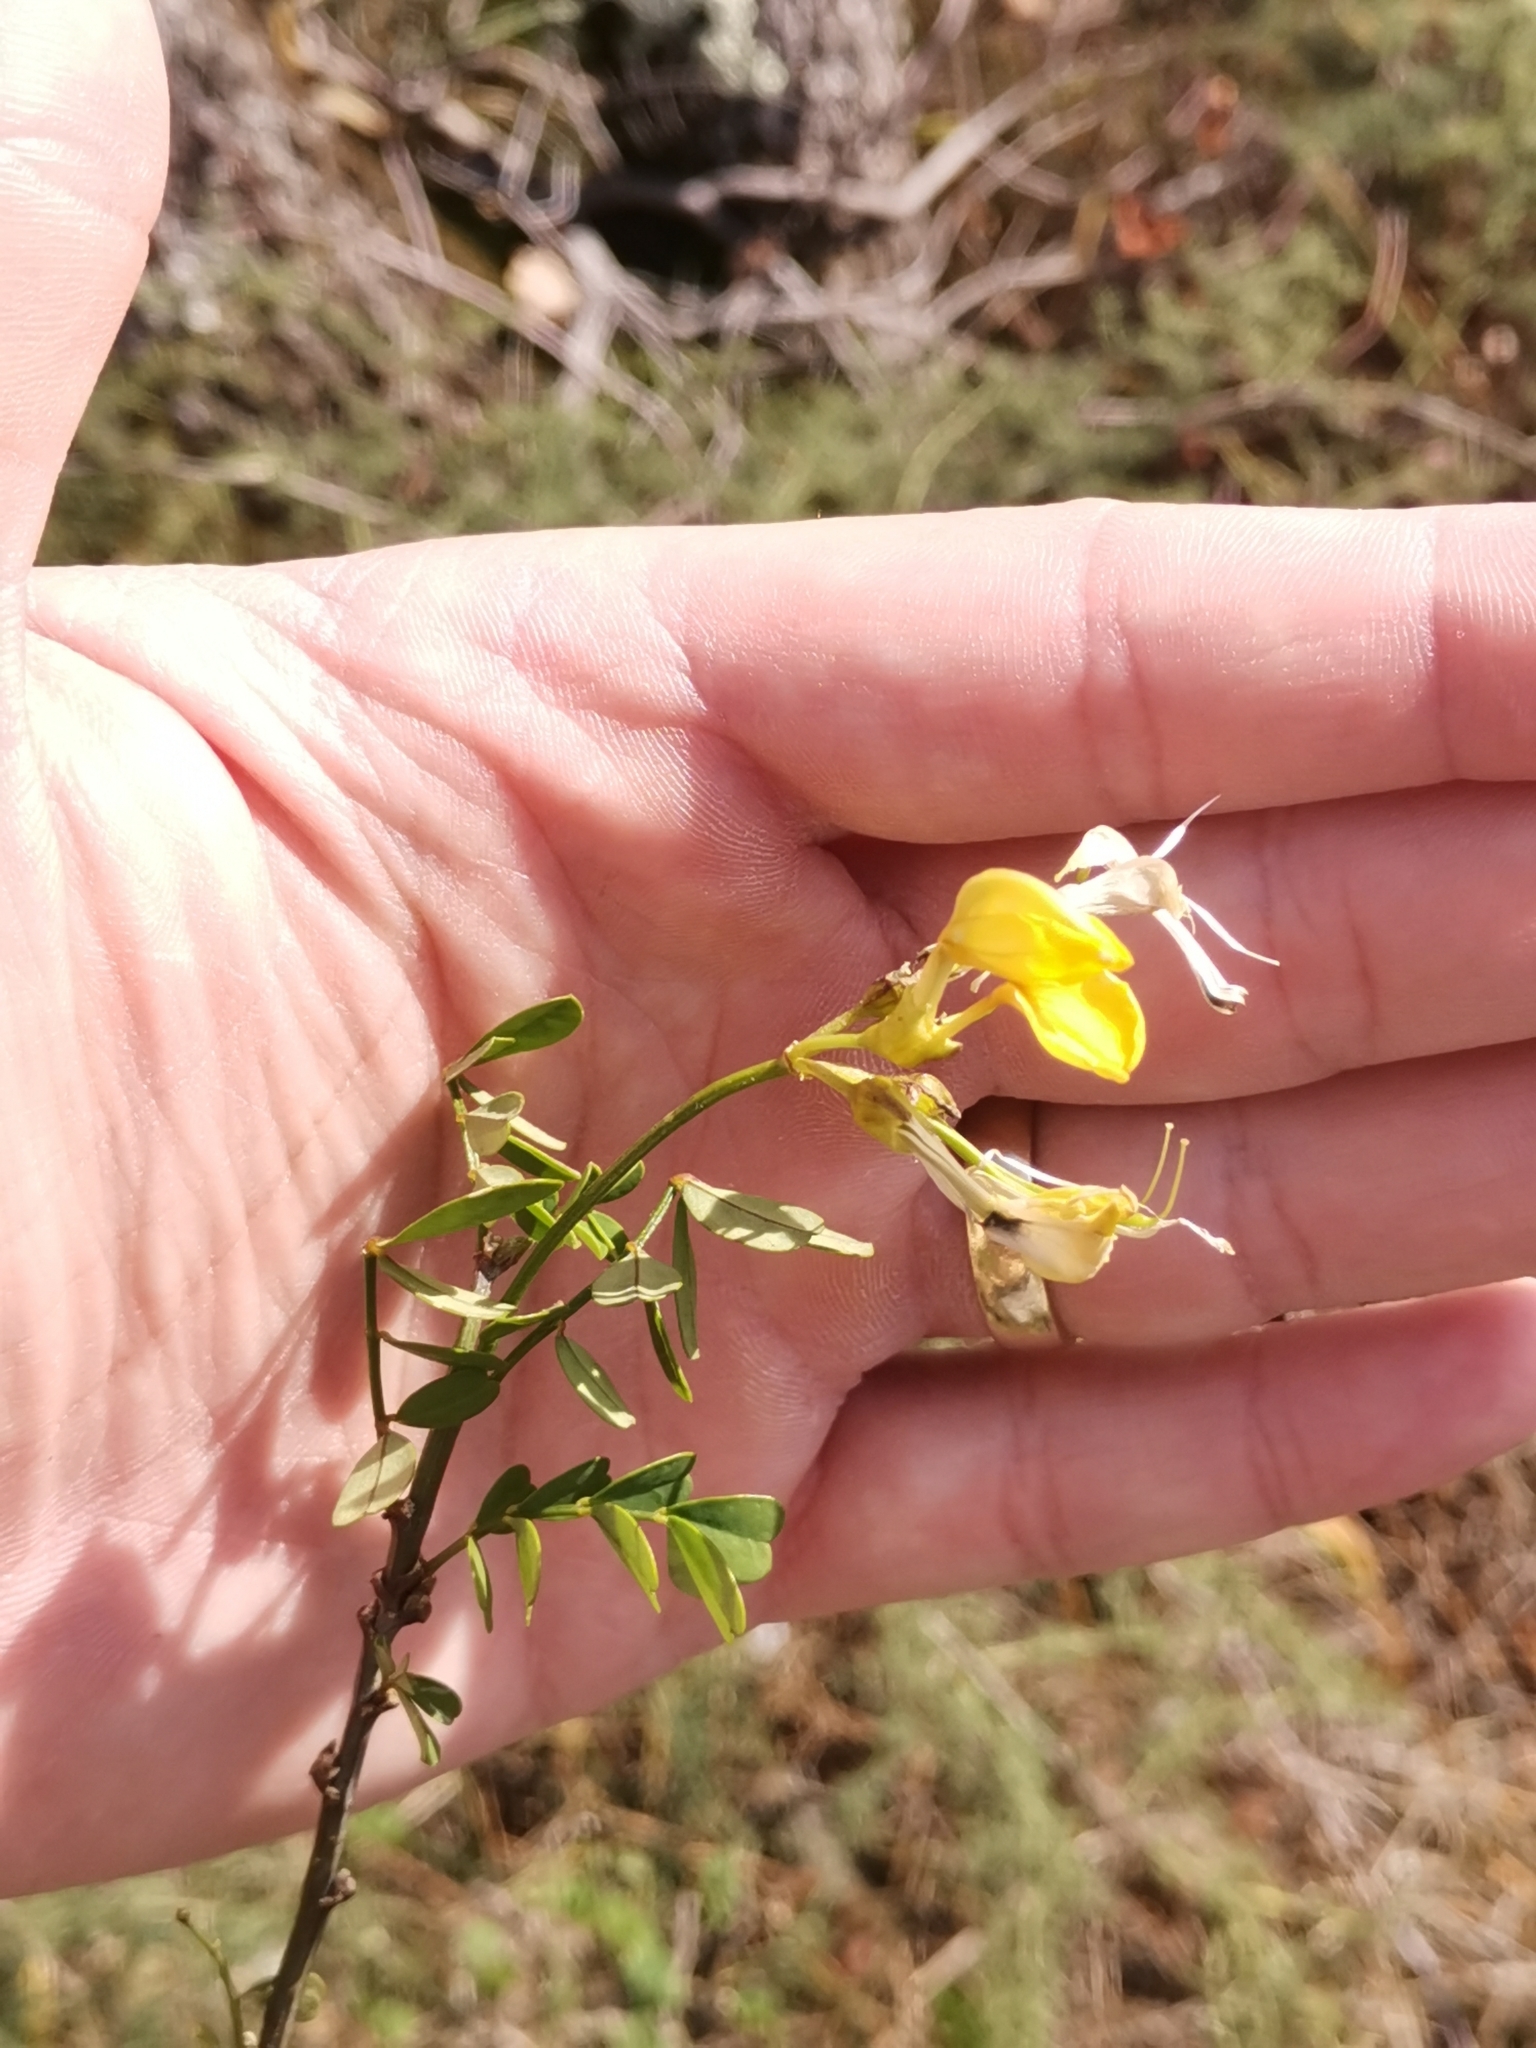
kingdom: Plantae
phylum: Tracheophyta
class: Magnoliopsida
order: Fabales
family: Fabaceae
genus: Hippocrepis
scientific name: Hippocrepis emerus
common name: Scorpion senna
